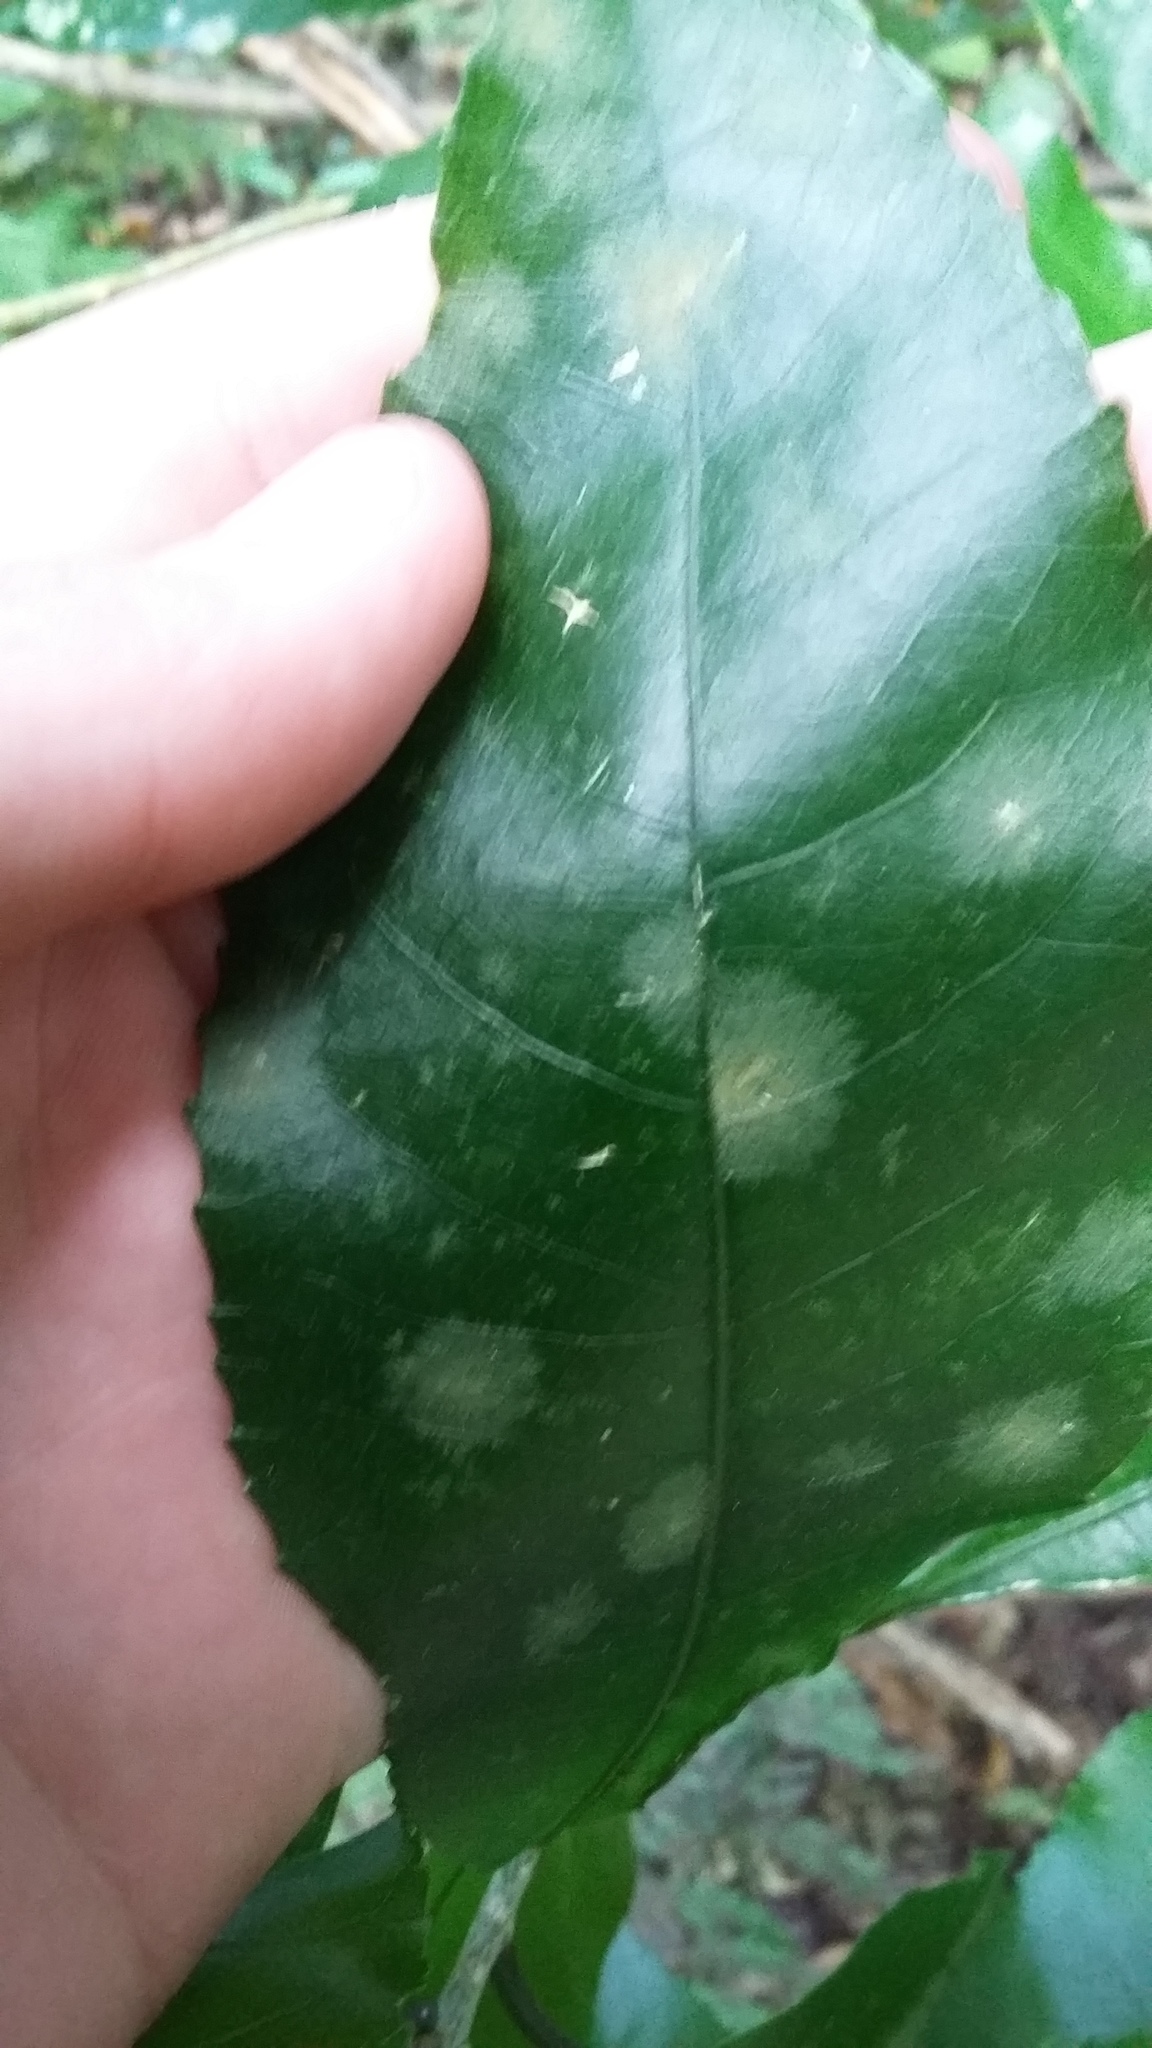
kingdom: Plantae
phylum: Chlorophyta
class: Ulvophyceae
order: Trentepohliales
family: Trentepohliaceae
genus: Cephaleuros
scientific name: Cephaleuros
